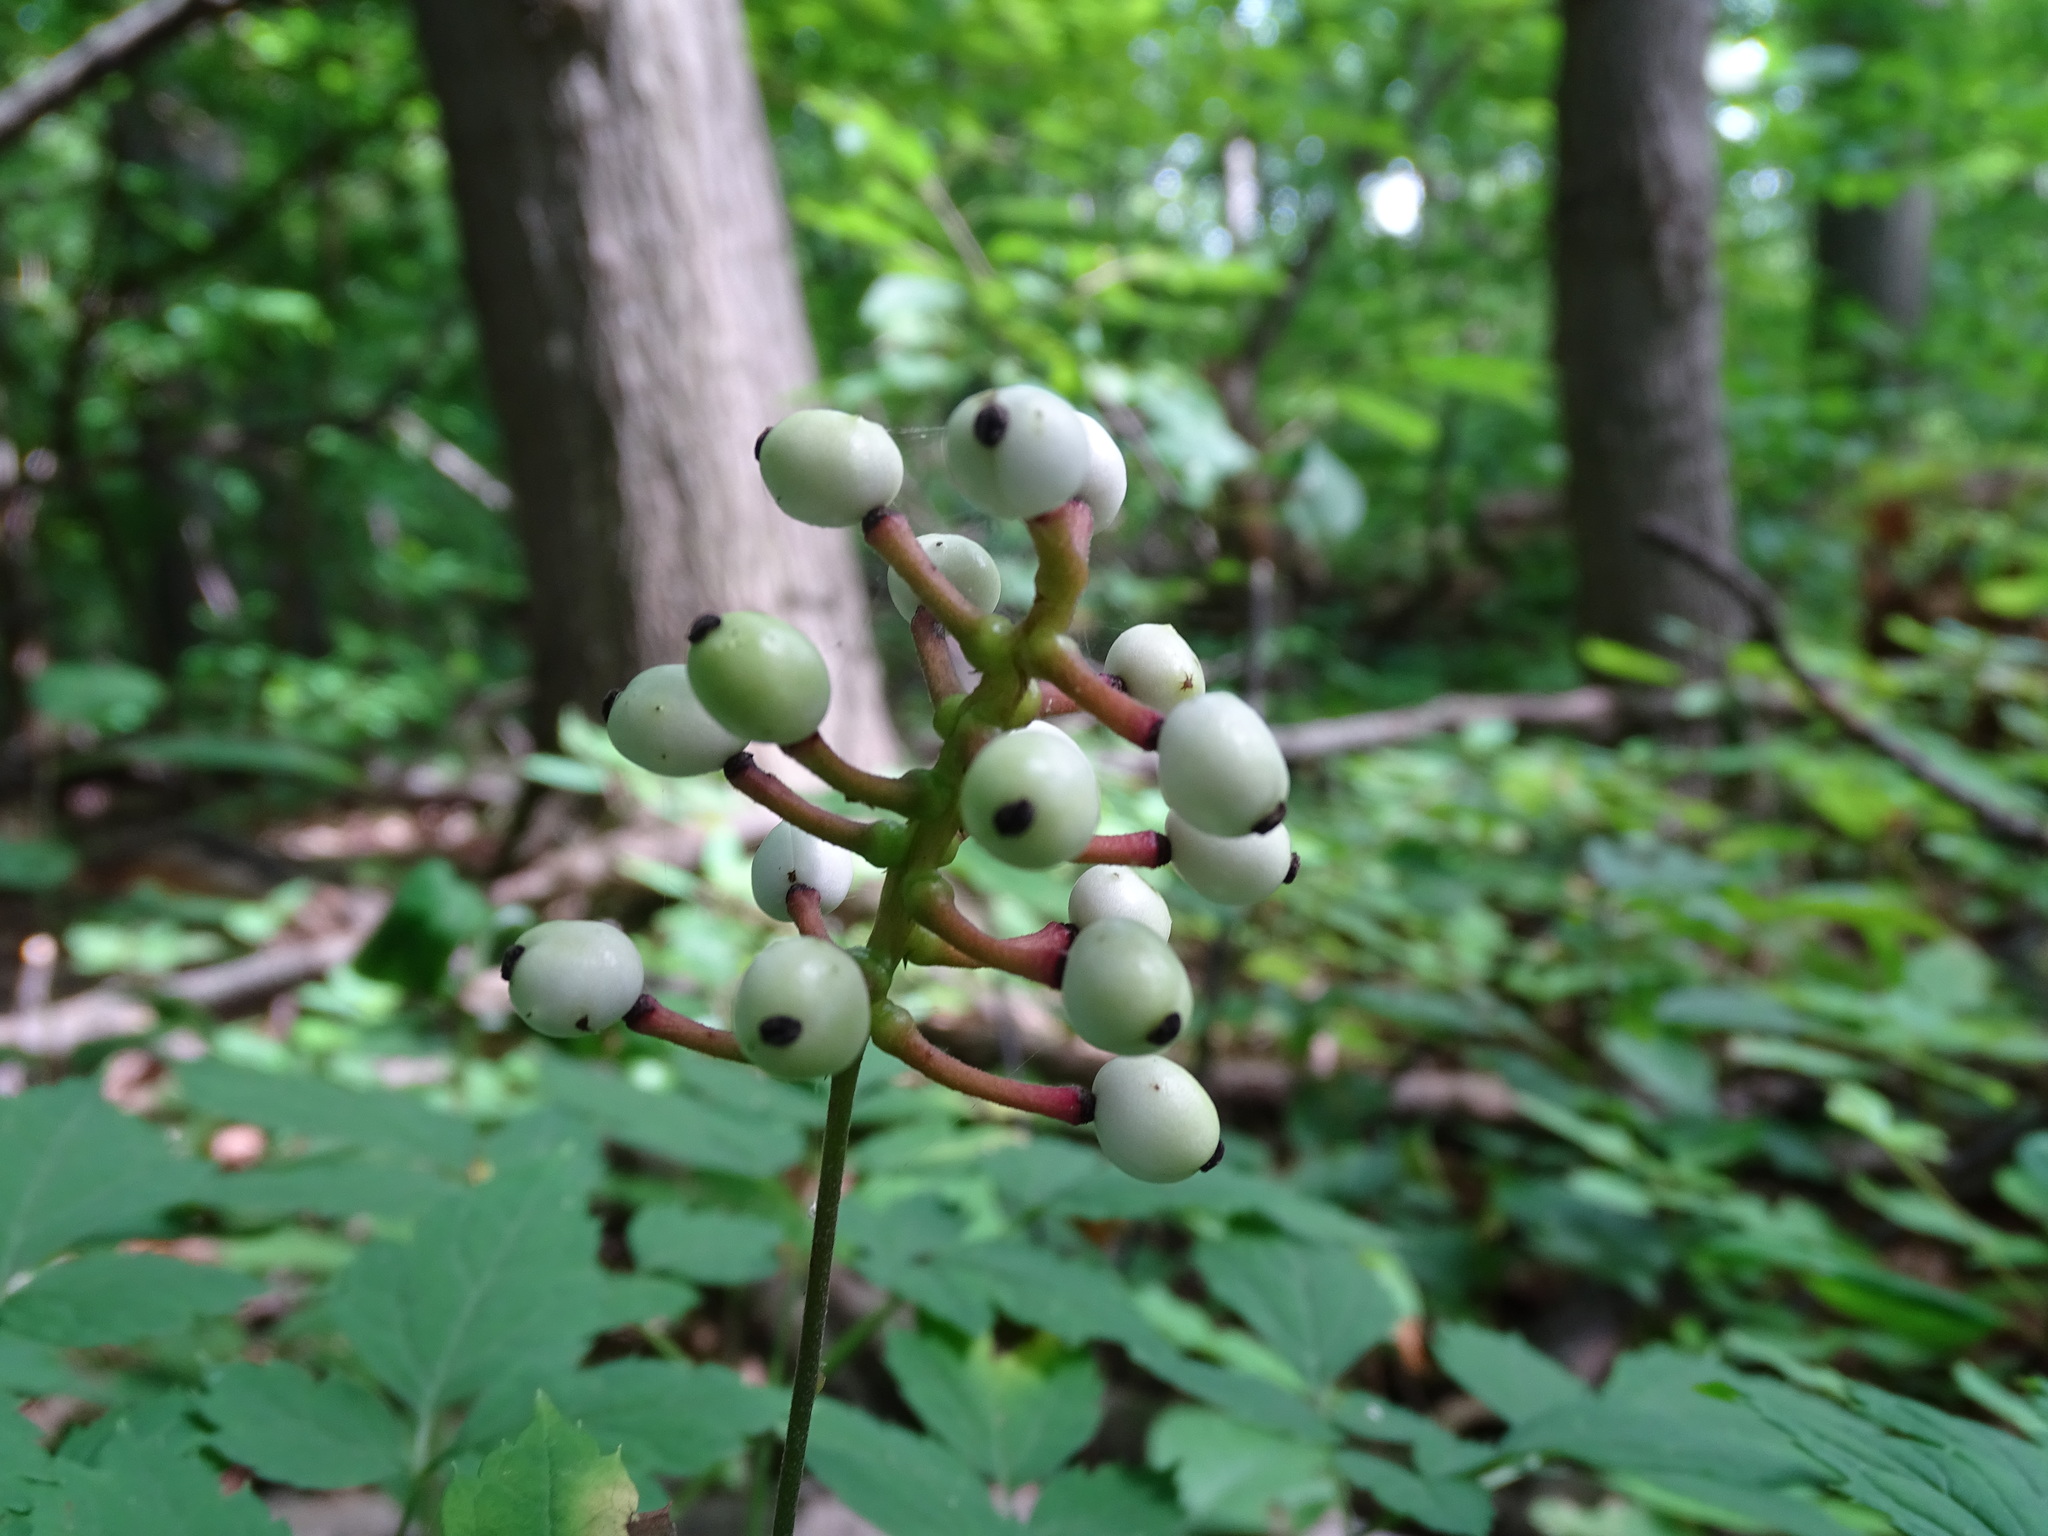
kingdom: Plantae
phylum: Tracheophyta
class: Magnoliopsida
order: Ranunculales
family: Ranunculaceae
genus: Actaea
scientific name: Actaea pachypoda
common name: Doll's-eyes
